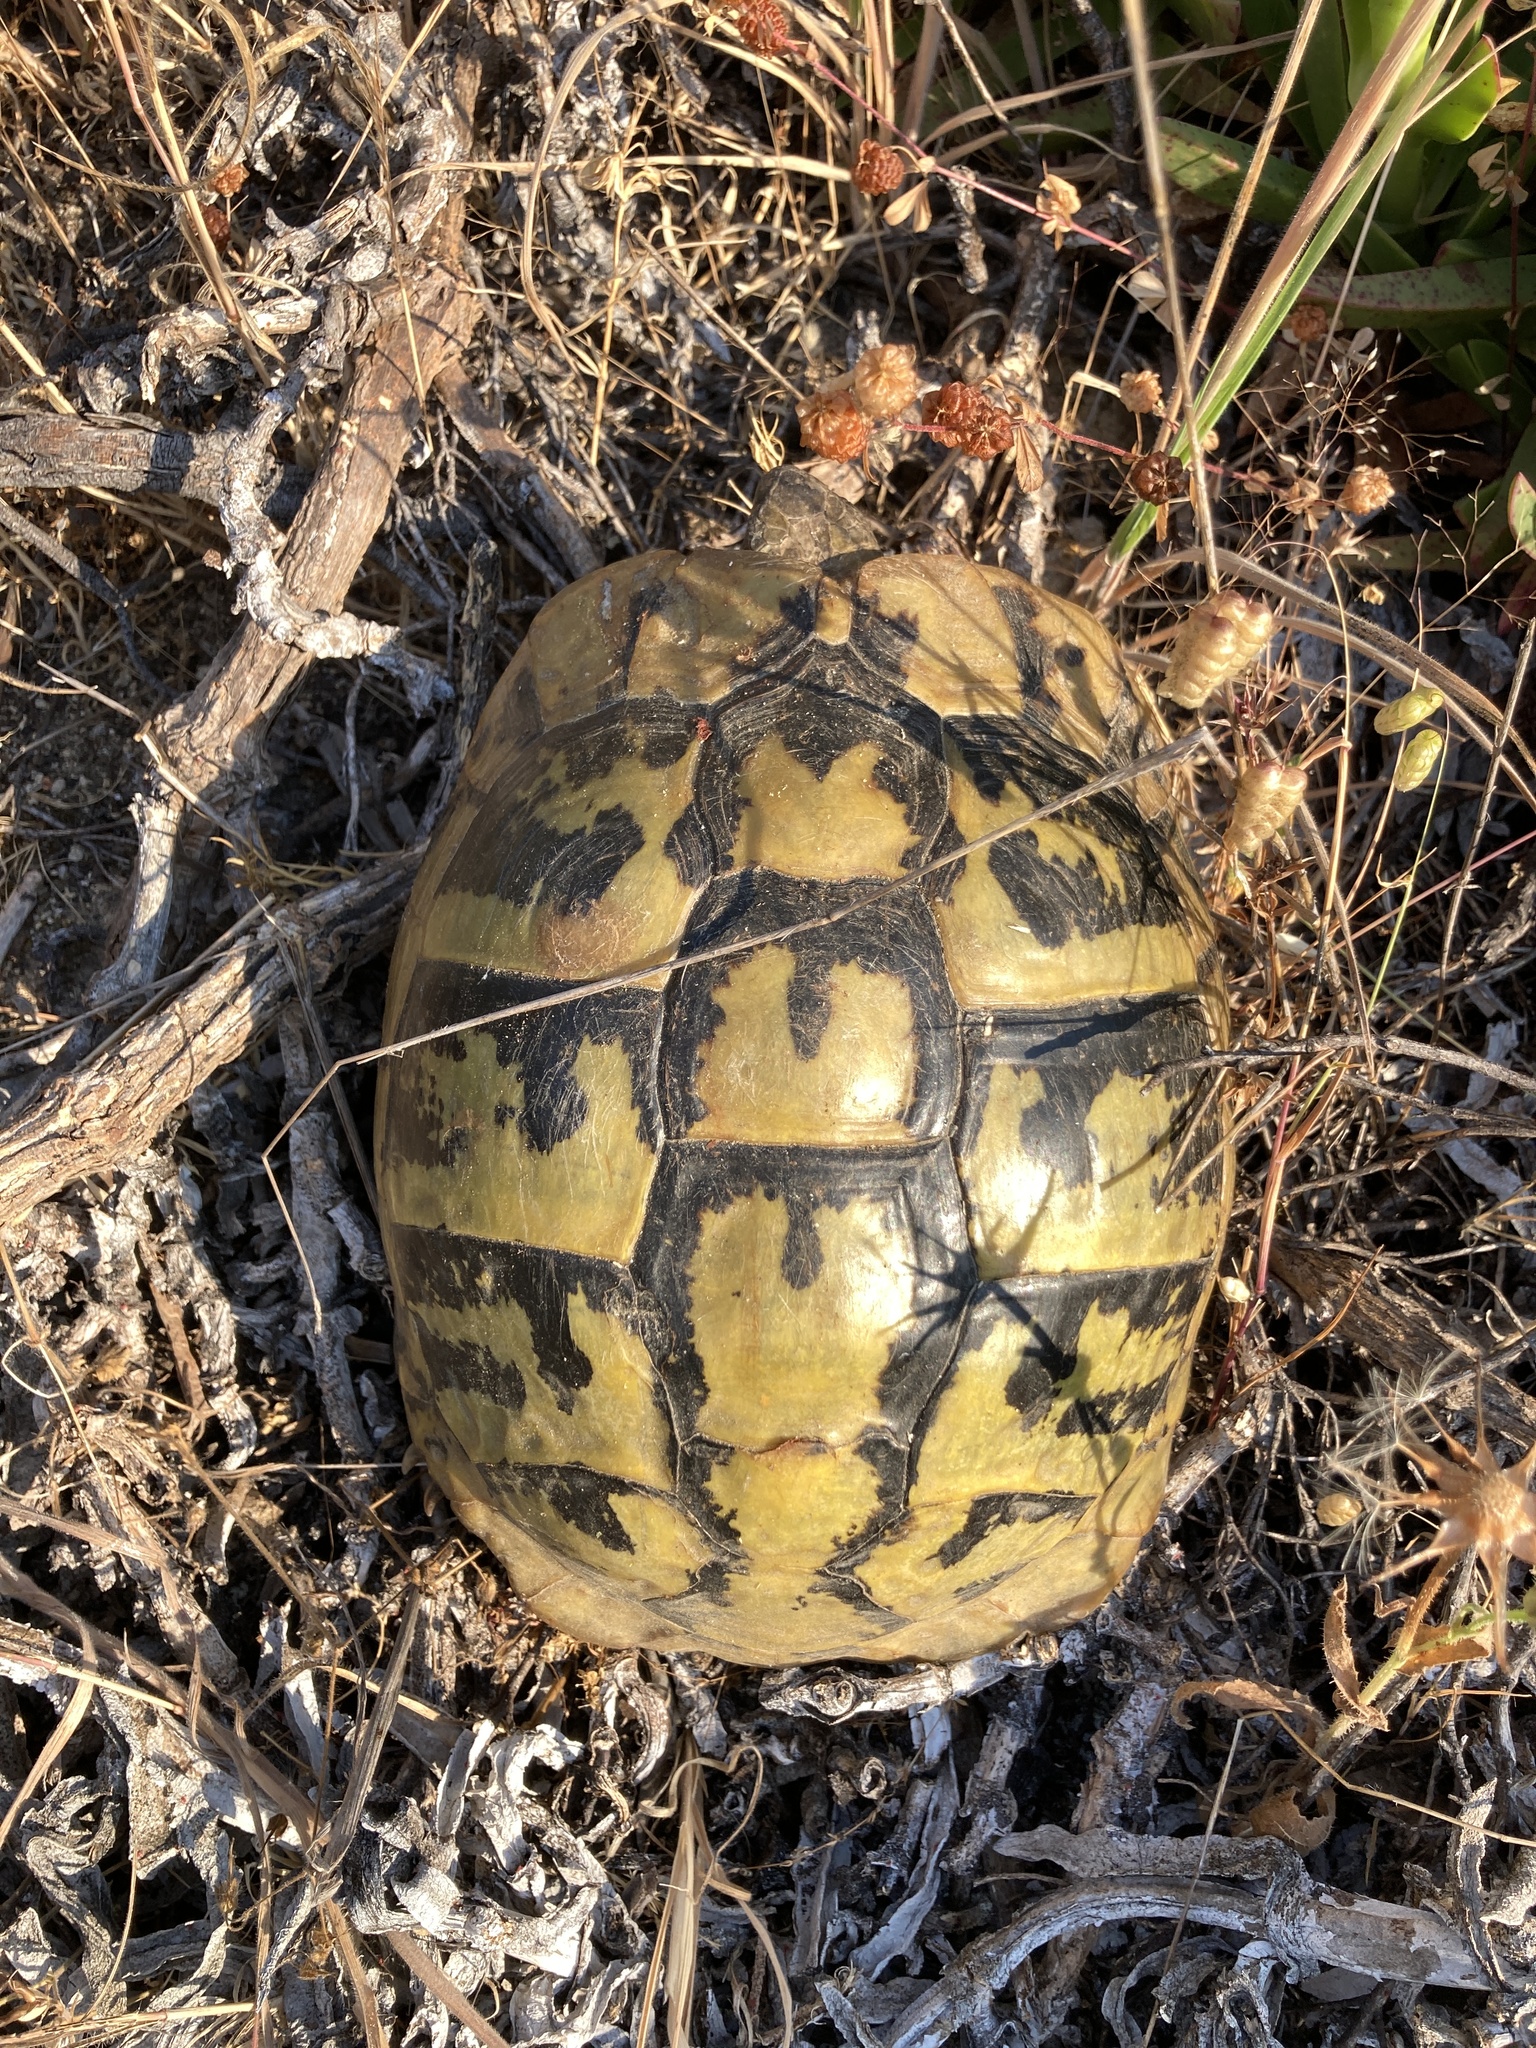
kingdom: Animalia
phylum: Chordata
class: Testudines
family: Testudinidae
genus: Testudo
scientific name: Testudo hermanni
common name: Hermann's tortoise
